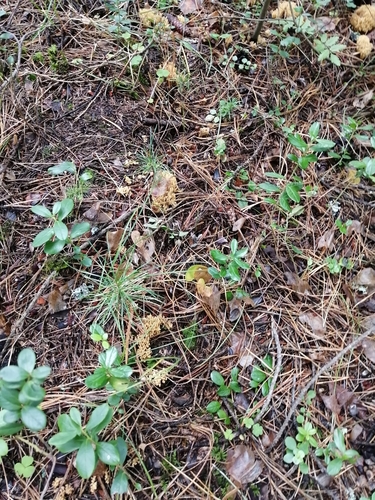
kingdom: Fungi
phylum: Basidiomycota
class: Agaricomycetes
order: Gomphales
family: Gomphaceae
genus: Ramaria
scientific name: Ramaria pallida
